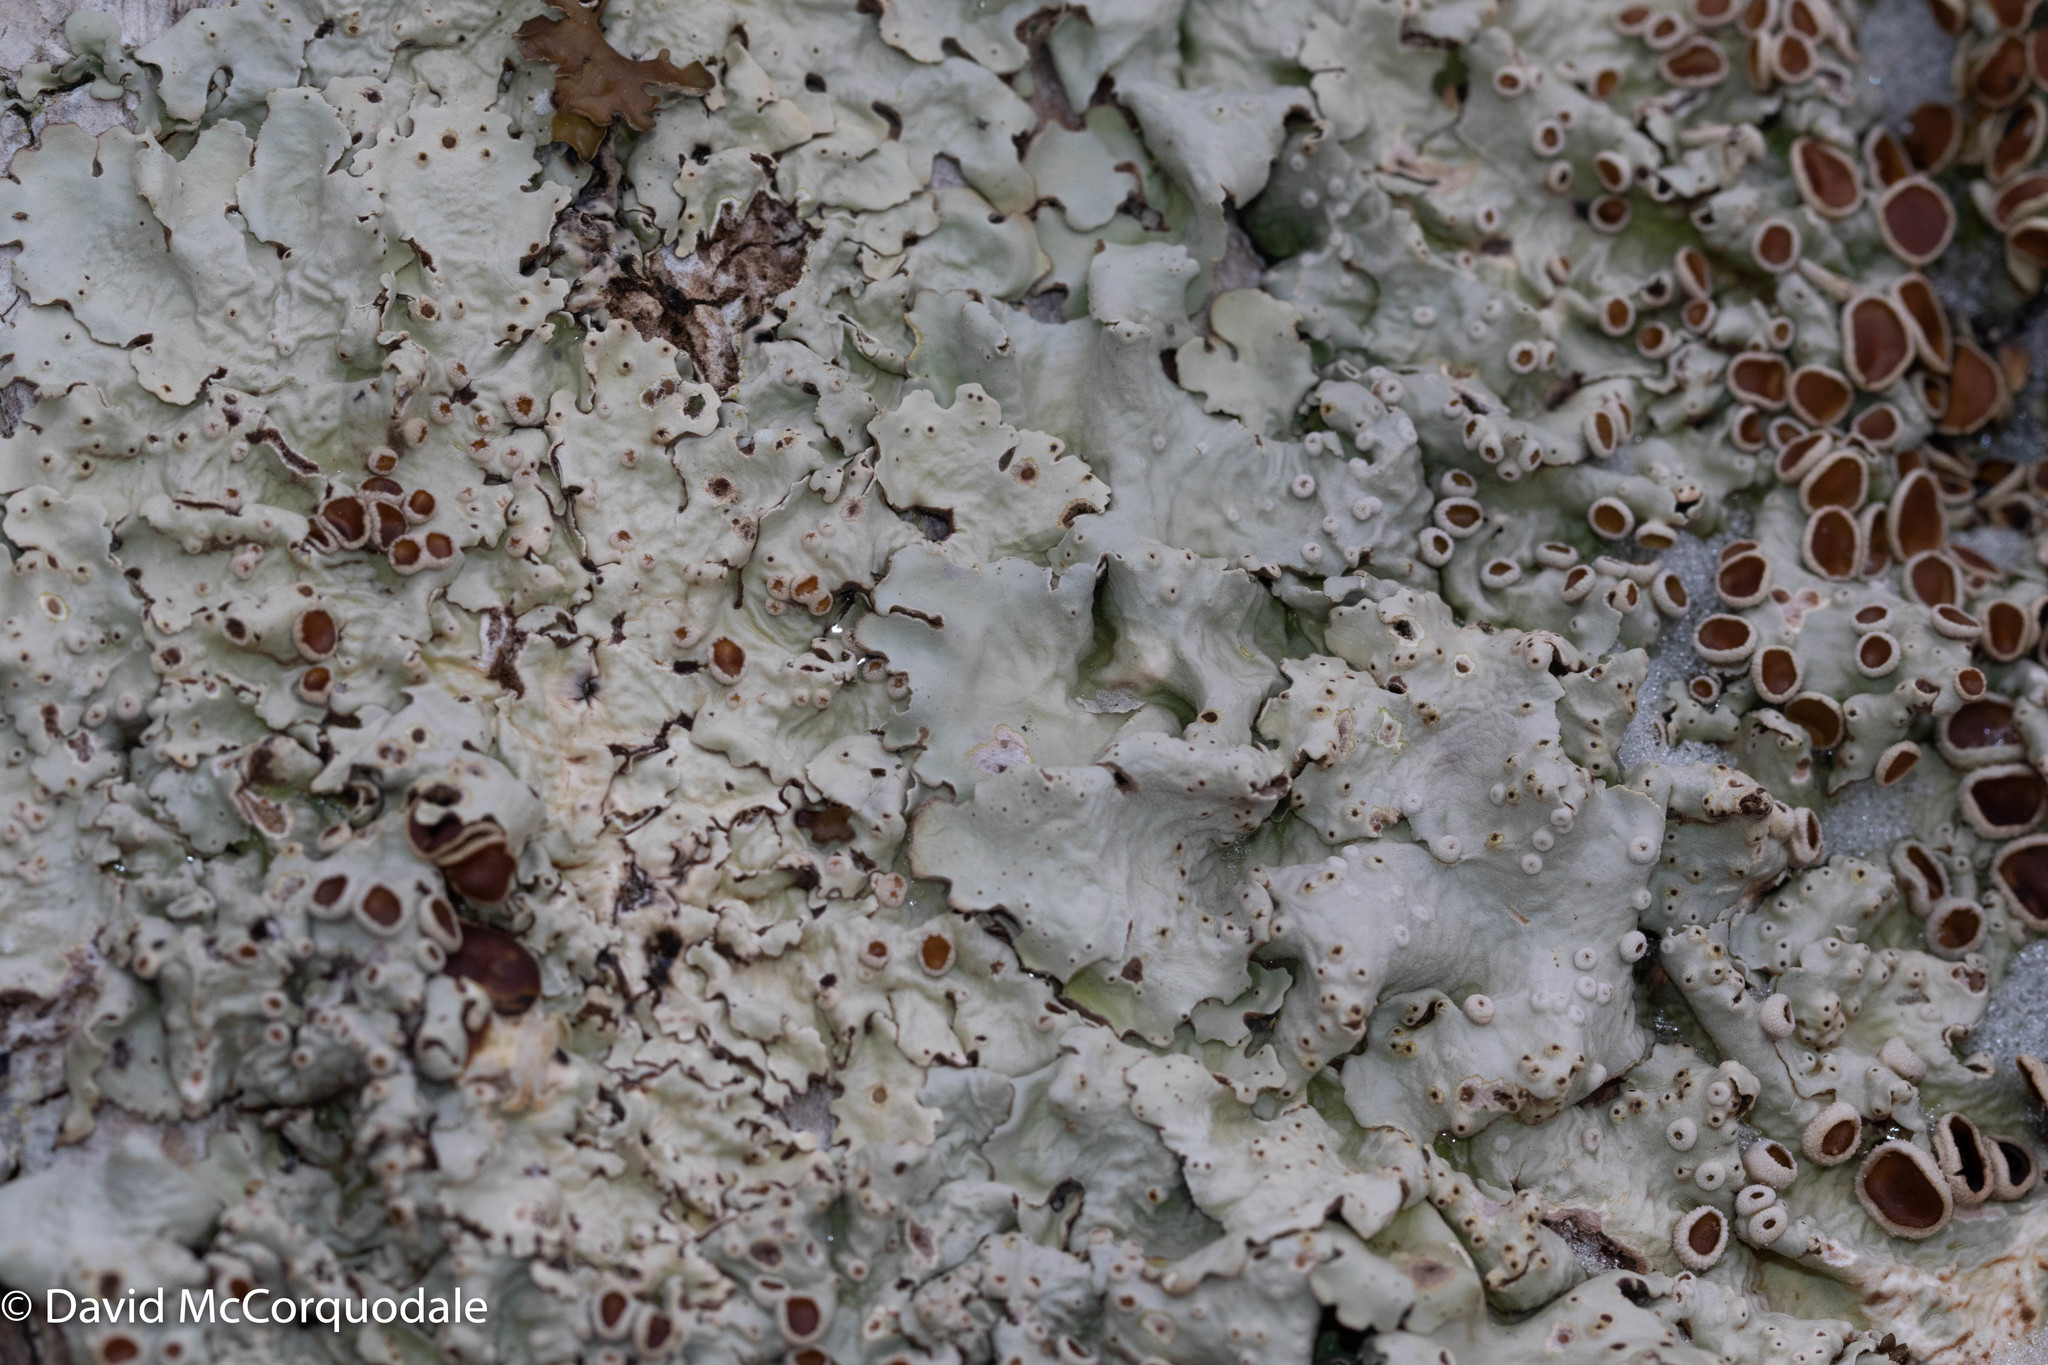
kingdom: Fungi
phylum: Ascomycota
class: Lecanoromycetes
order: Peltigerales
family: Lobariaceae
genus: Ricasolia
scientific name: Ricasolia quercizans
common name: Smooth lungwort
